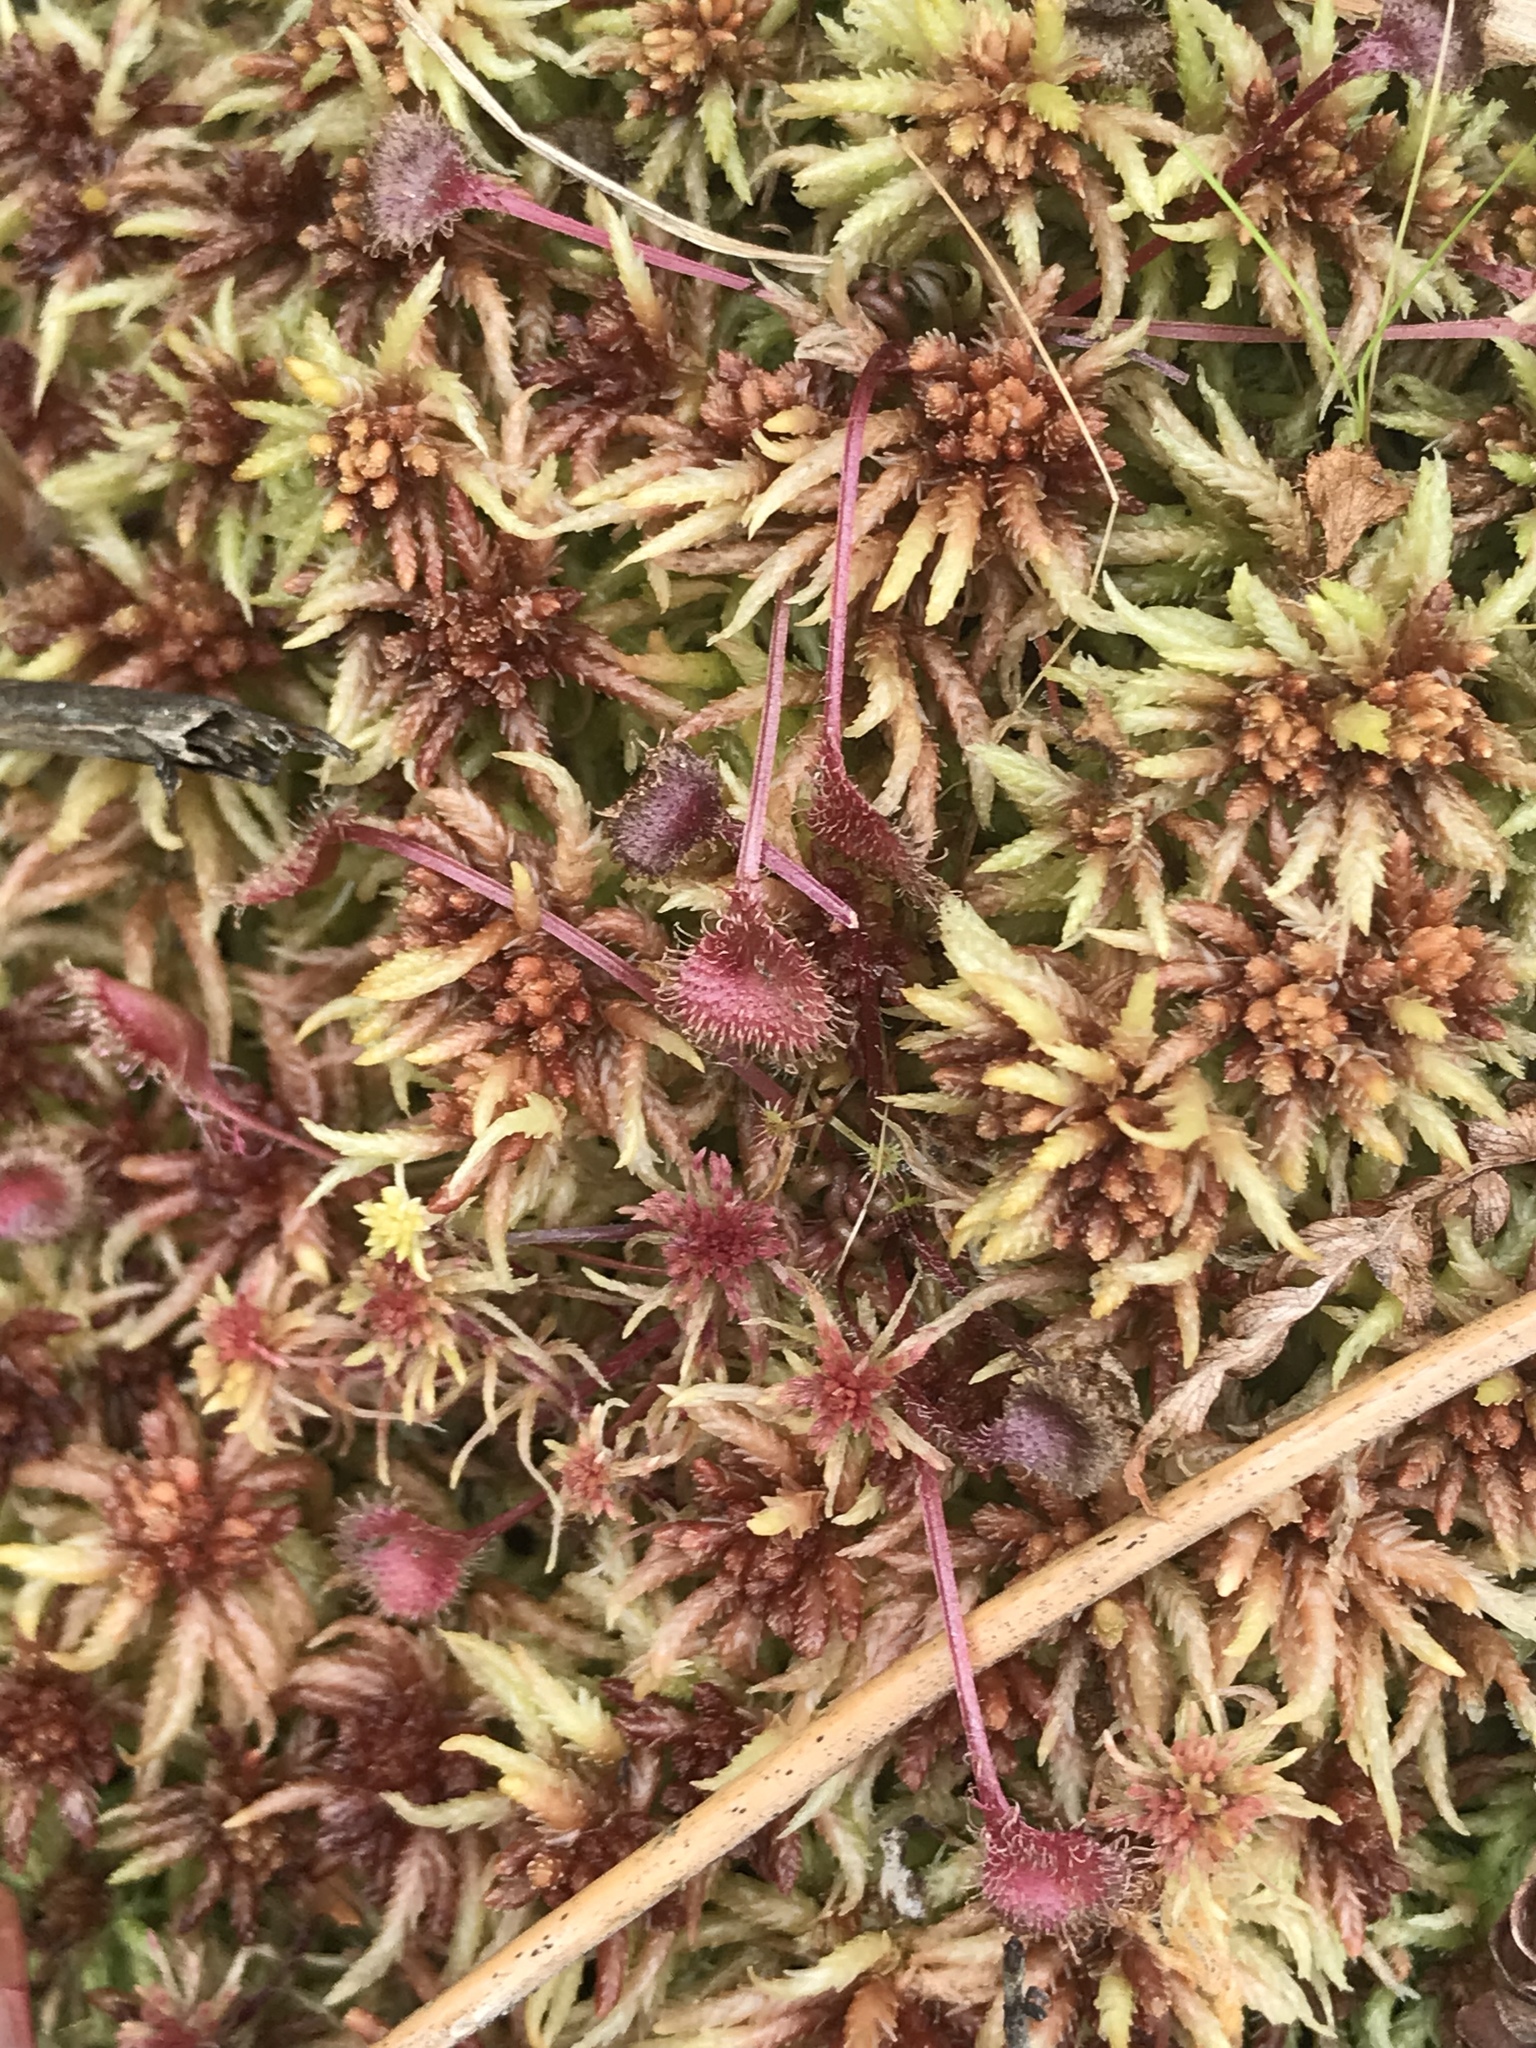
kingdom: Plantae
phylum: Tracheophyta
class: Magnoliopsida
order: Caryophyllales
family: Droseraceae
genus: Drosera
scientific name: Drosera rotundifolia
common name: Round-leaved sundew
